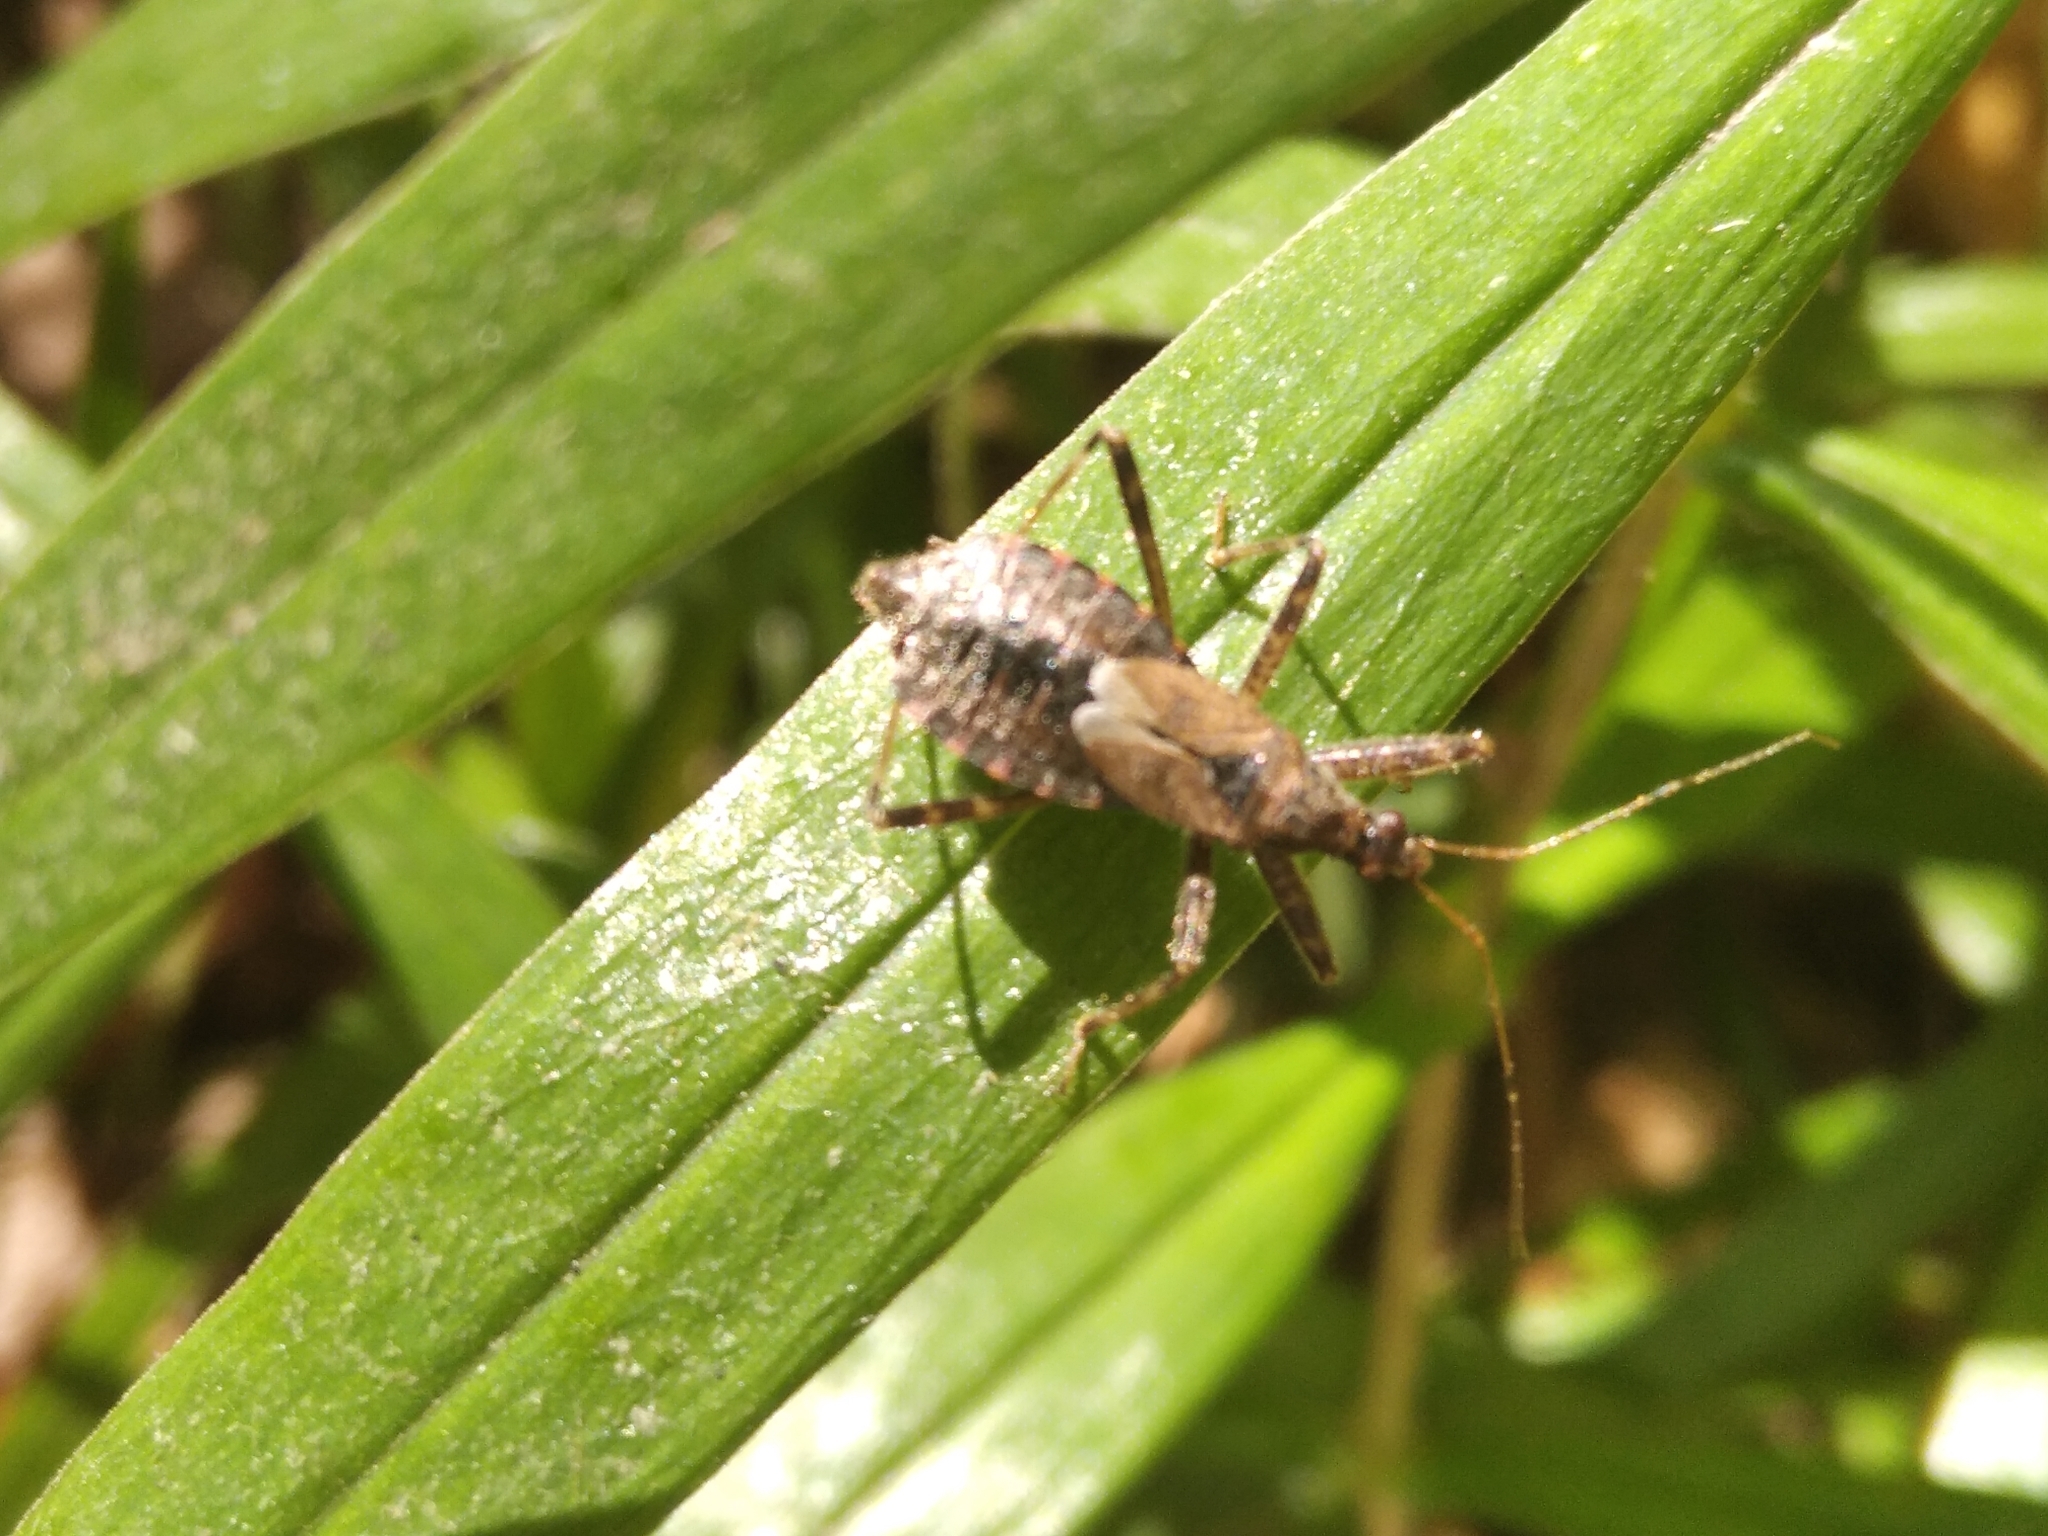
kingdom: Animalia
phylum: Arthropoda
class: Insecta
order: Hemiptera
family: Nabidae
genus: Himacerus
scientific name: Himacerus apterus
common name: Tree damsel bug
